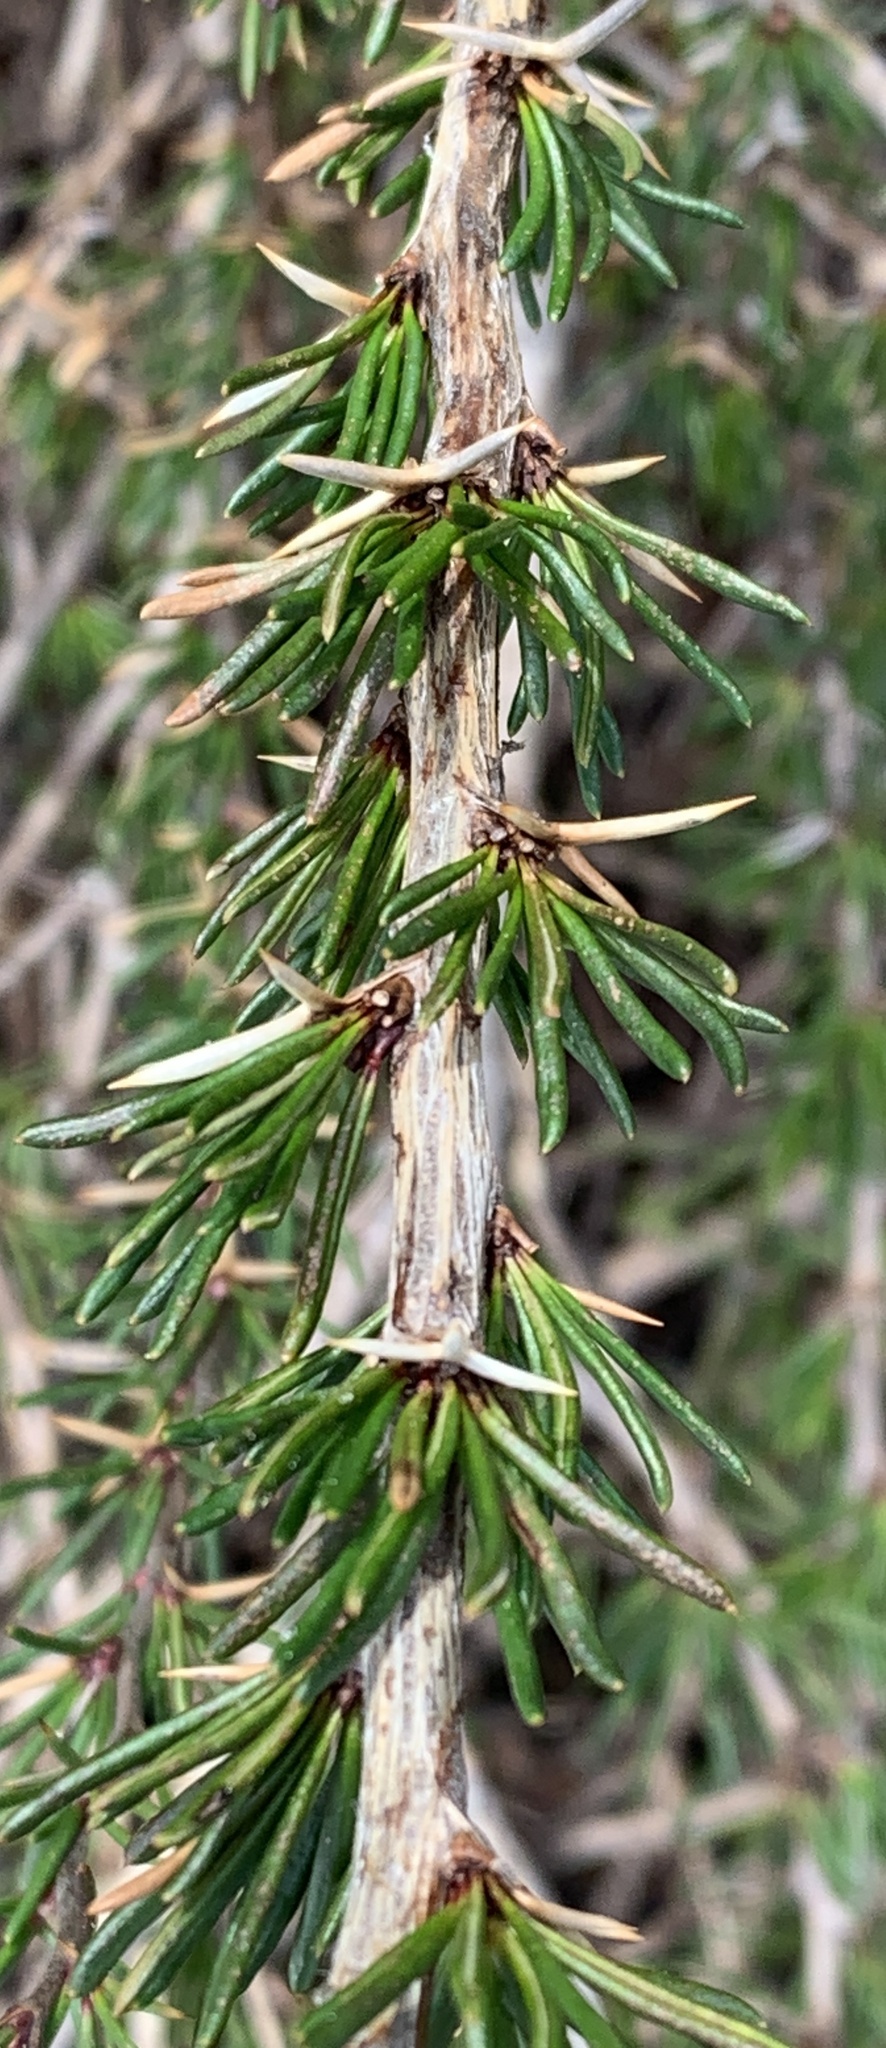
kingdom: Plantae
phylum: Tracheophyta
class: Magnoliopsida
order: Ranunculales
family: Berberidaceae
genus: Berberis
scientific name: Berberis empetrifolia
